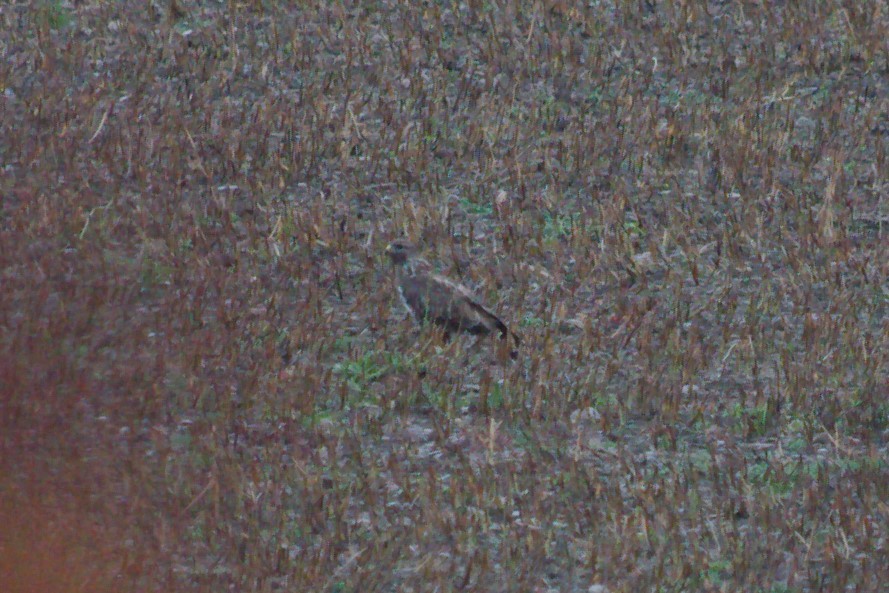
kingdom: Animalia
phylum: Chordata
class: Aves
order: Accipitriformes
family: Accipitridae
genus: Buteo
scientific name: Buteo buteo
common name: Common buzzard
